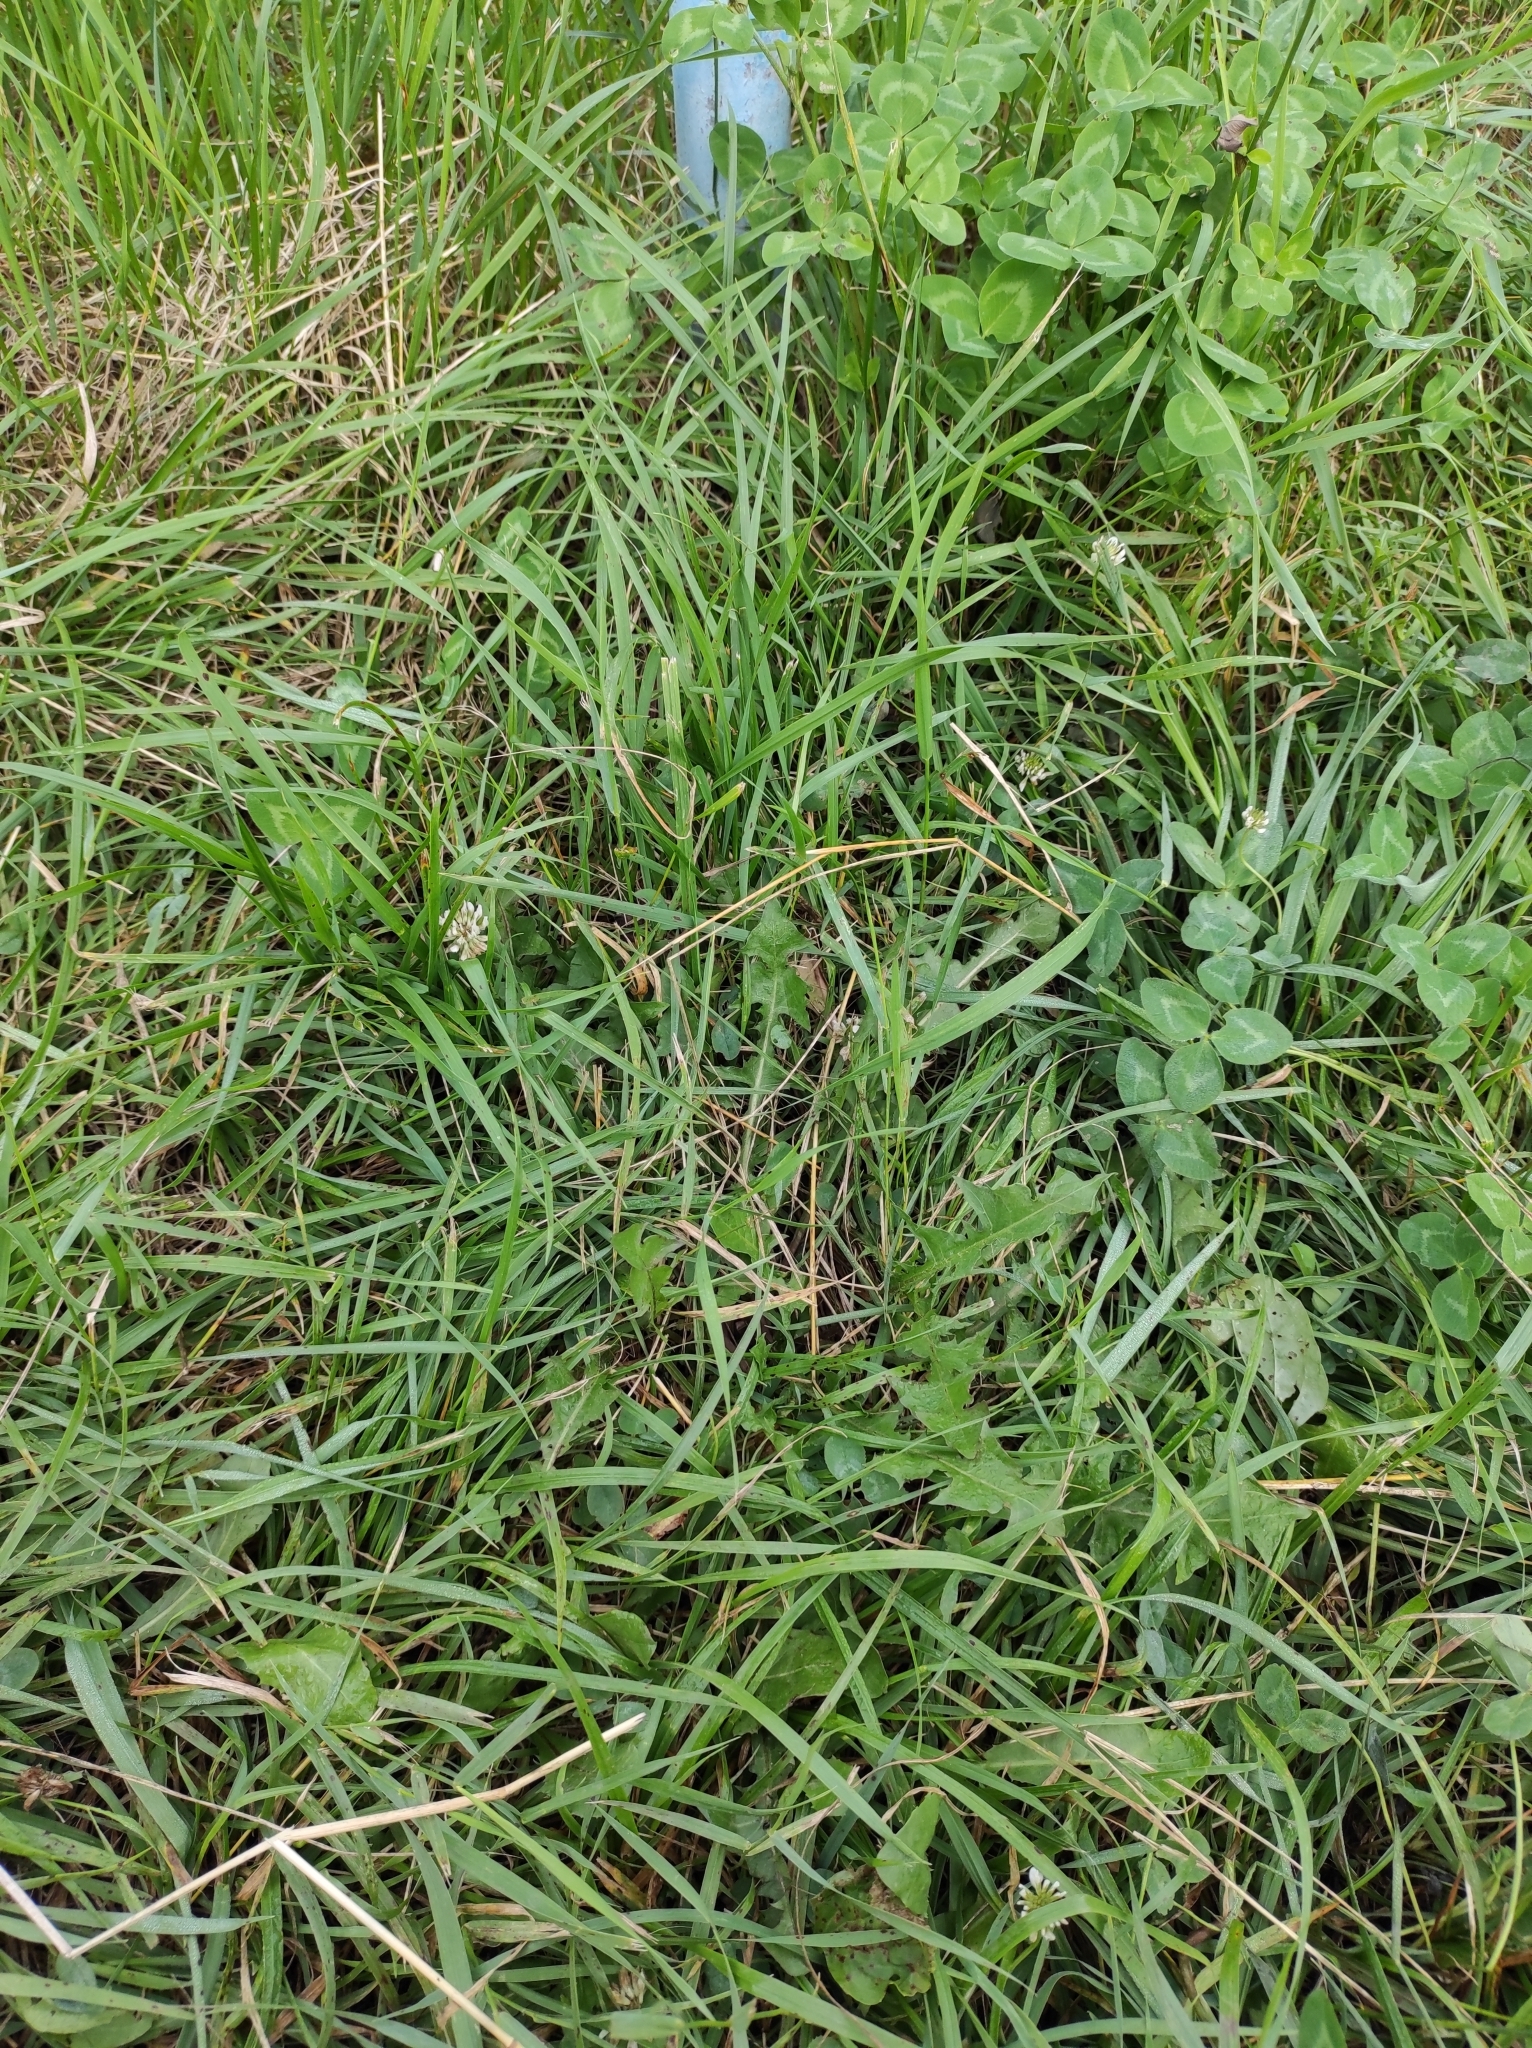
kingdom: Plantae
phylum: Tracheophyta
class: Magnoliopsida
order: Fabales
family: Fabaceae
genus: Trifolium
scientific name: Trifolium repens
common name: White clover
